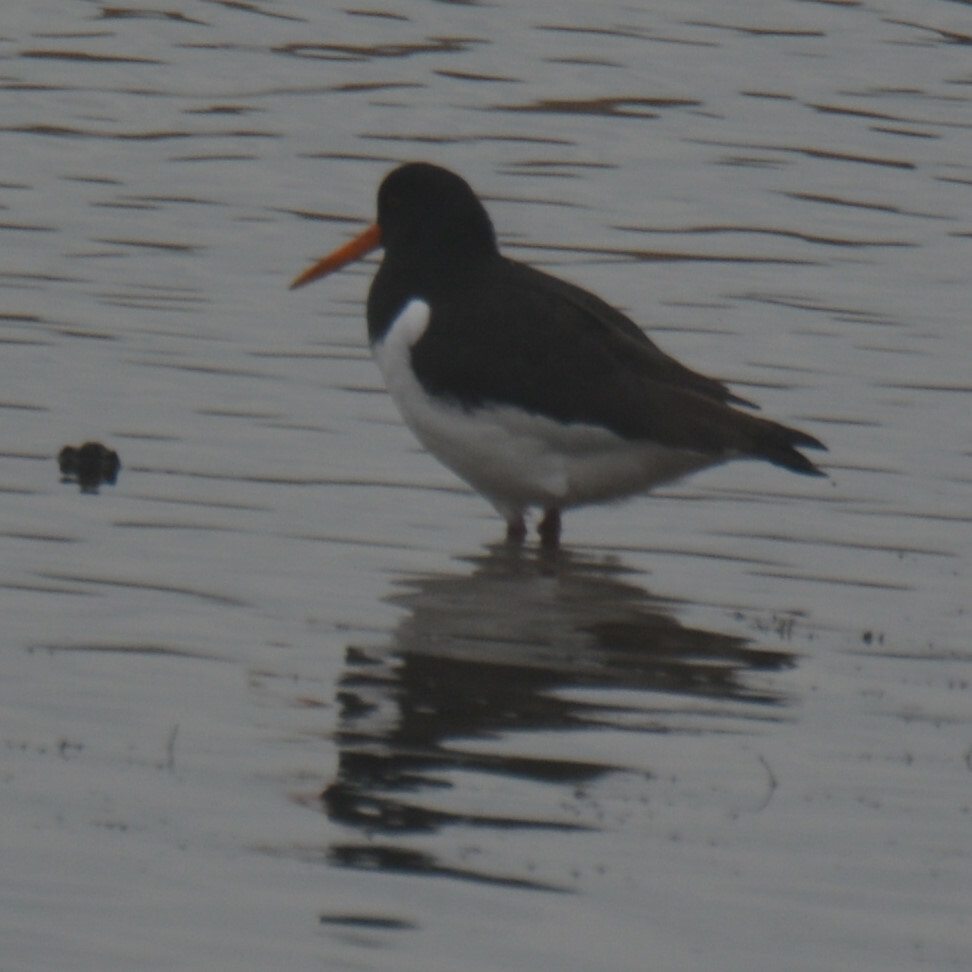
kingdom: Animalia
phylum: Chordata
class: Aves
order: Charadriiformes
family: Haematopodidae
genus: Haematopus
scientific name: Haematopus ostralegus
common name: Eurasian oystercatcher
